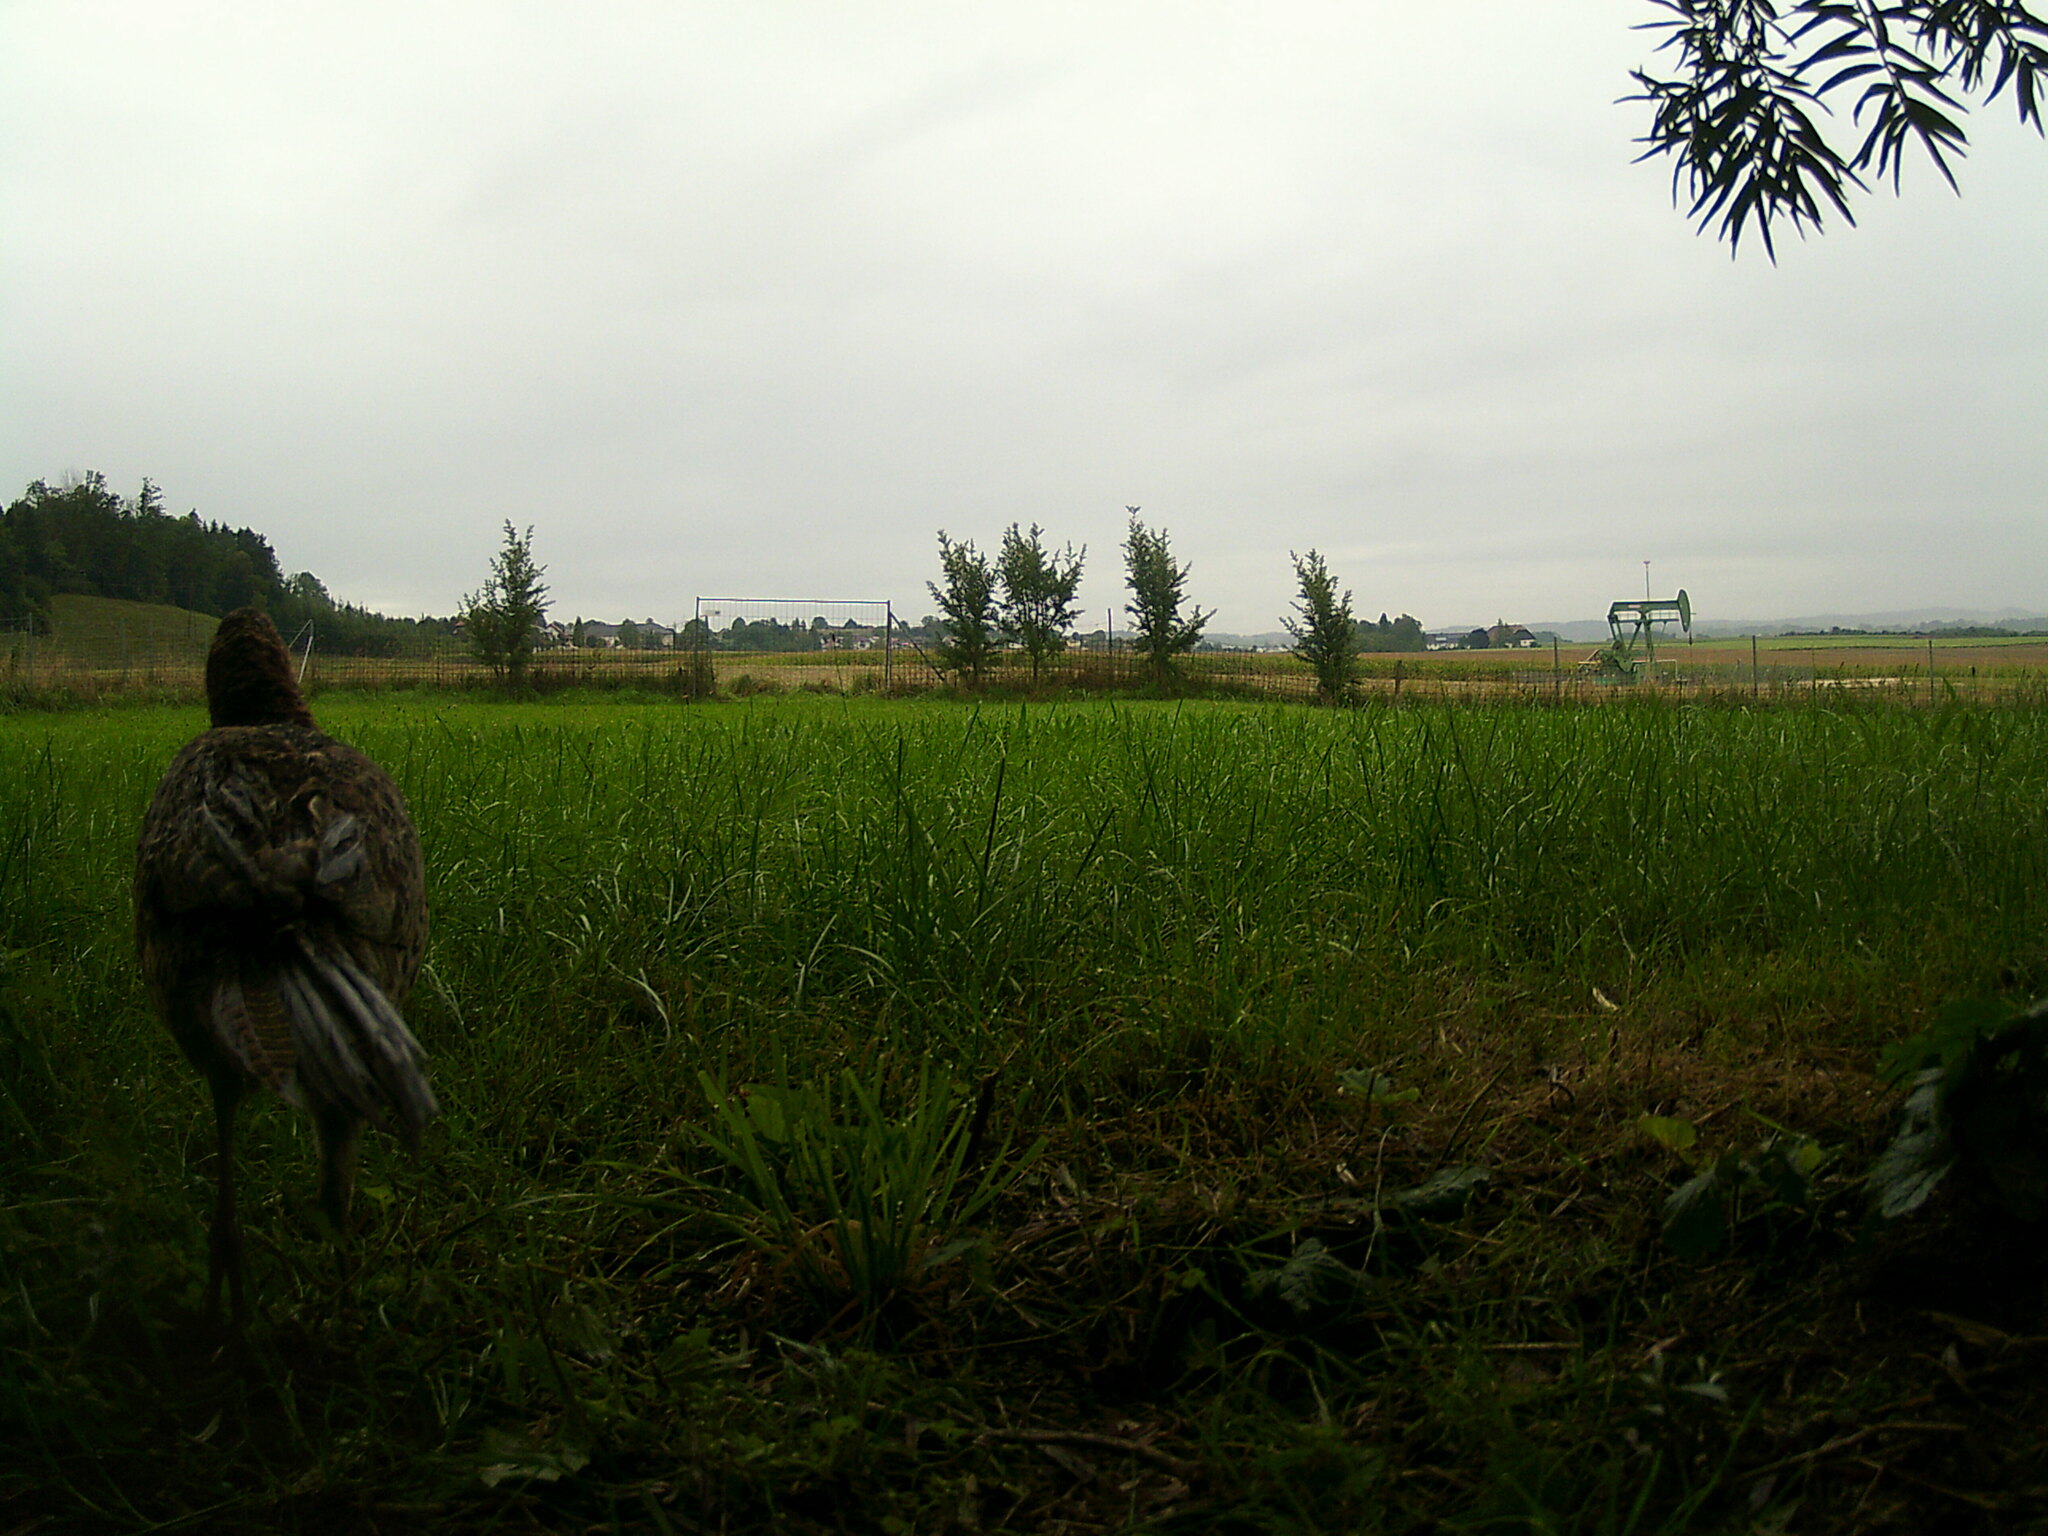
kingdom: Animalia
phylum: Chordata
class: Aves
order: Galliformes
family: Phasianidae
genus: Phasianus
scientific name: Phasianus colchicus
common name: Common pheasant
